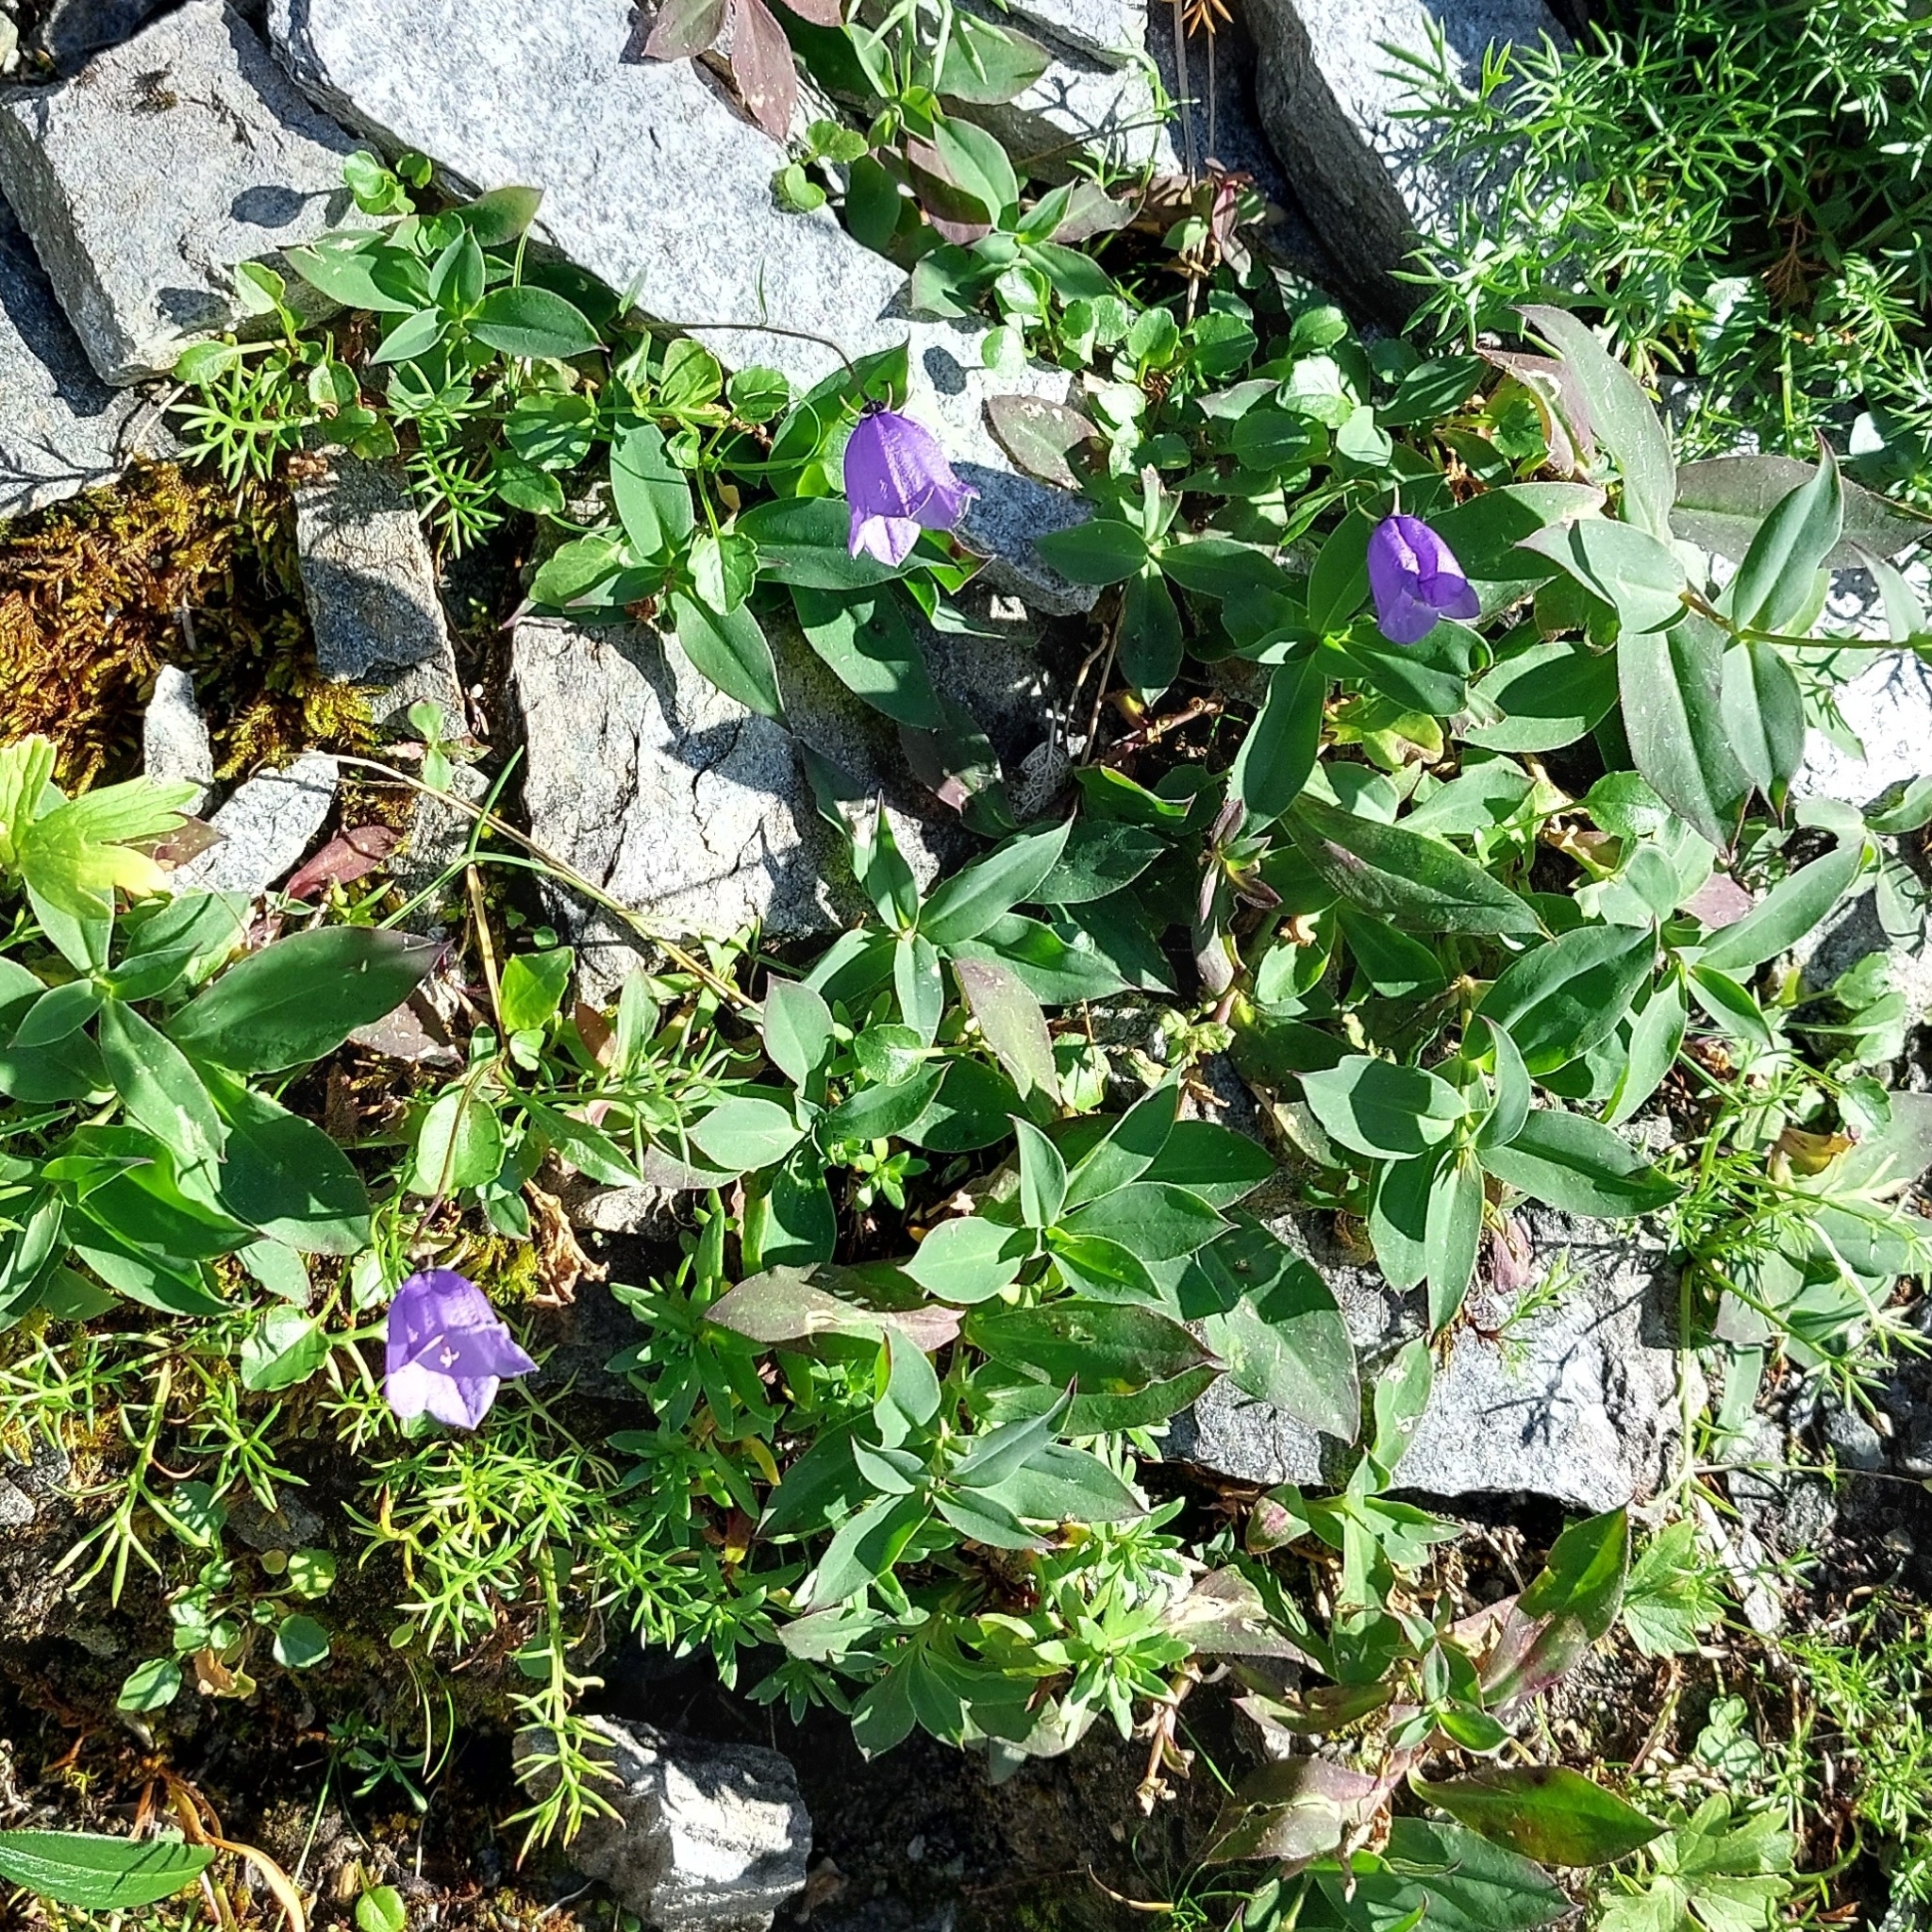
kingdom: Plantae
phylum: Tracheophyta
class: Magnoliopsida
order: Asterales
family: Campanulaceae
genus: Campanula
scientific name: Campanula cochleariifolia
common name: Fairies'-thimbles
